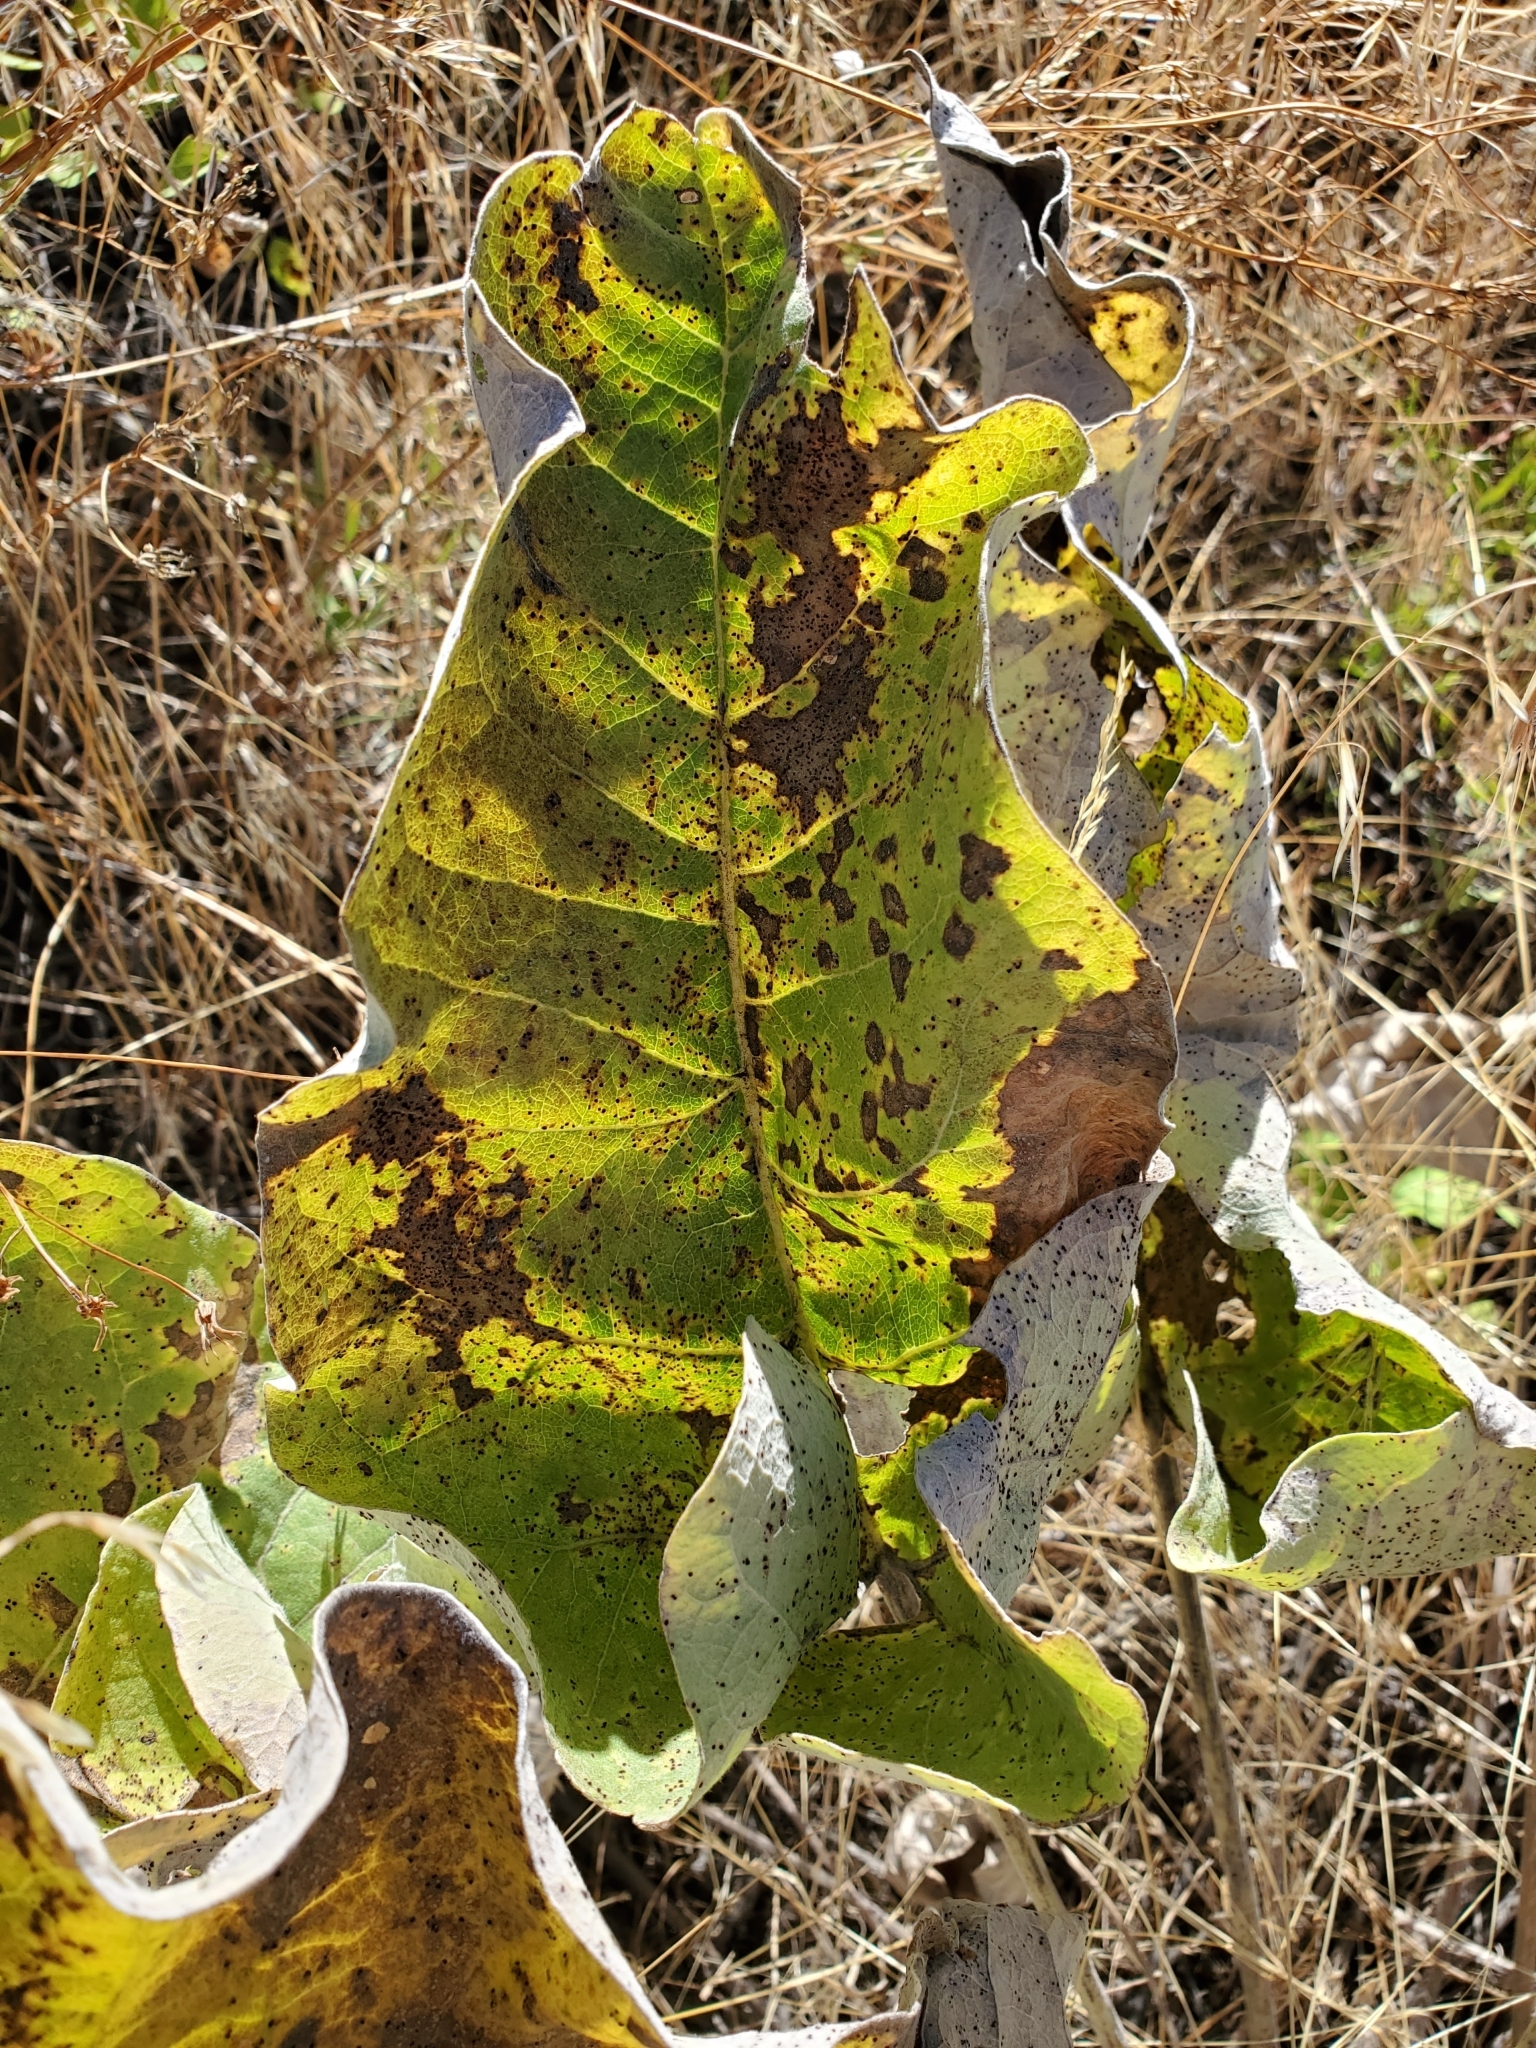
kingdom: Plantae
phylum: Tracheophyta
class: Magnoliopsida
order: Asterales
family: Asteraceae
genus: Wyethia
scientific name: Wyethia sagittata
